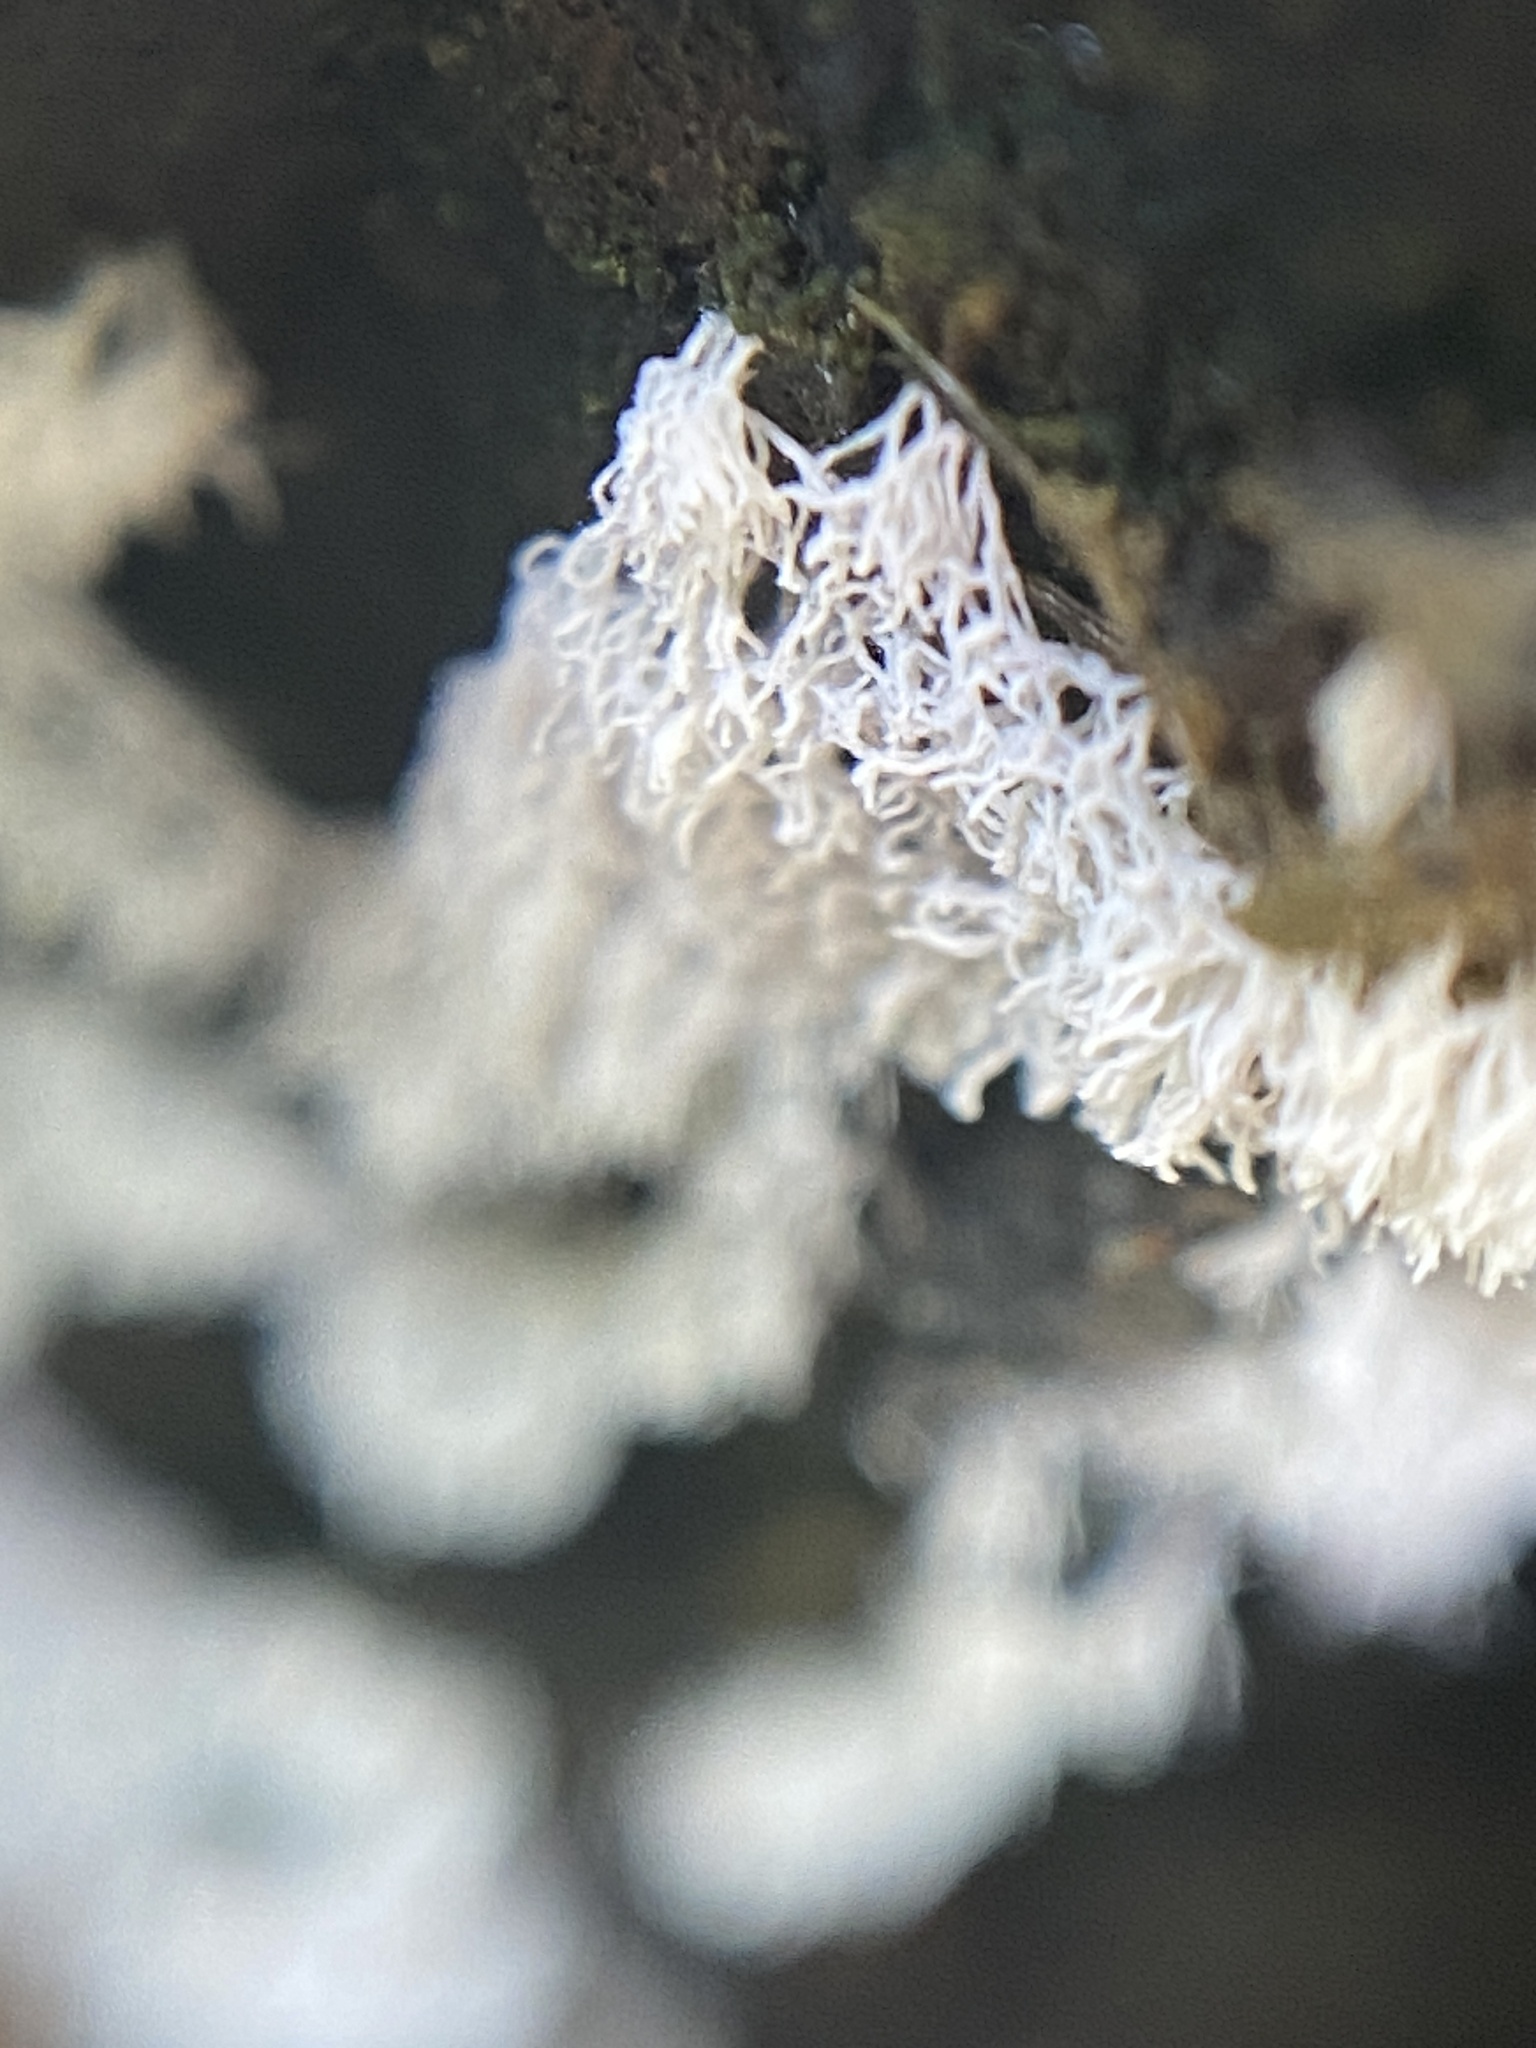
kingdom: Protozoa
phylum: Mycetozoa
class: Protosteliomycetes
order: Ceratiomyxales
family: Ceratiomyxaceae
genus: Ceratiomyxa
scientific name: Ceratiomyxa fruticulosa
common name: Honeycomb coral slime mold
